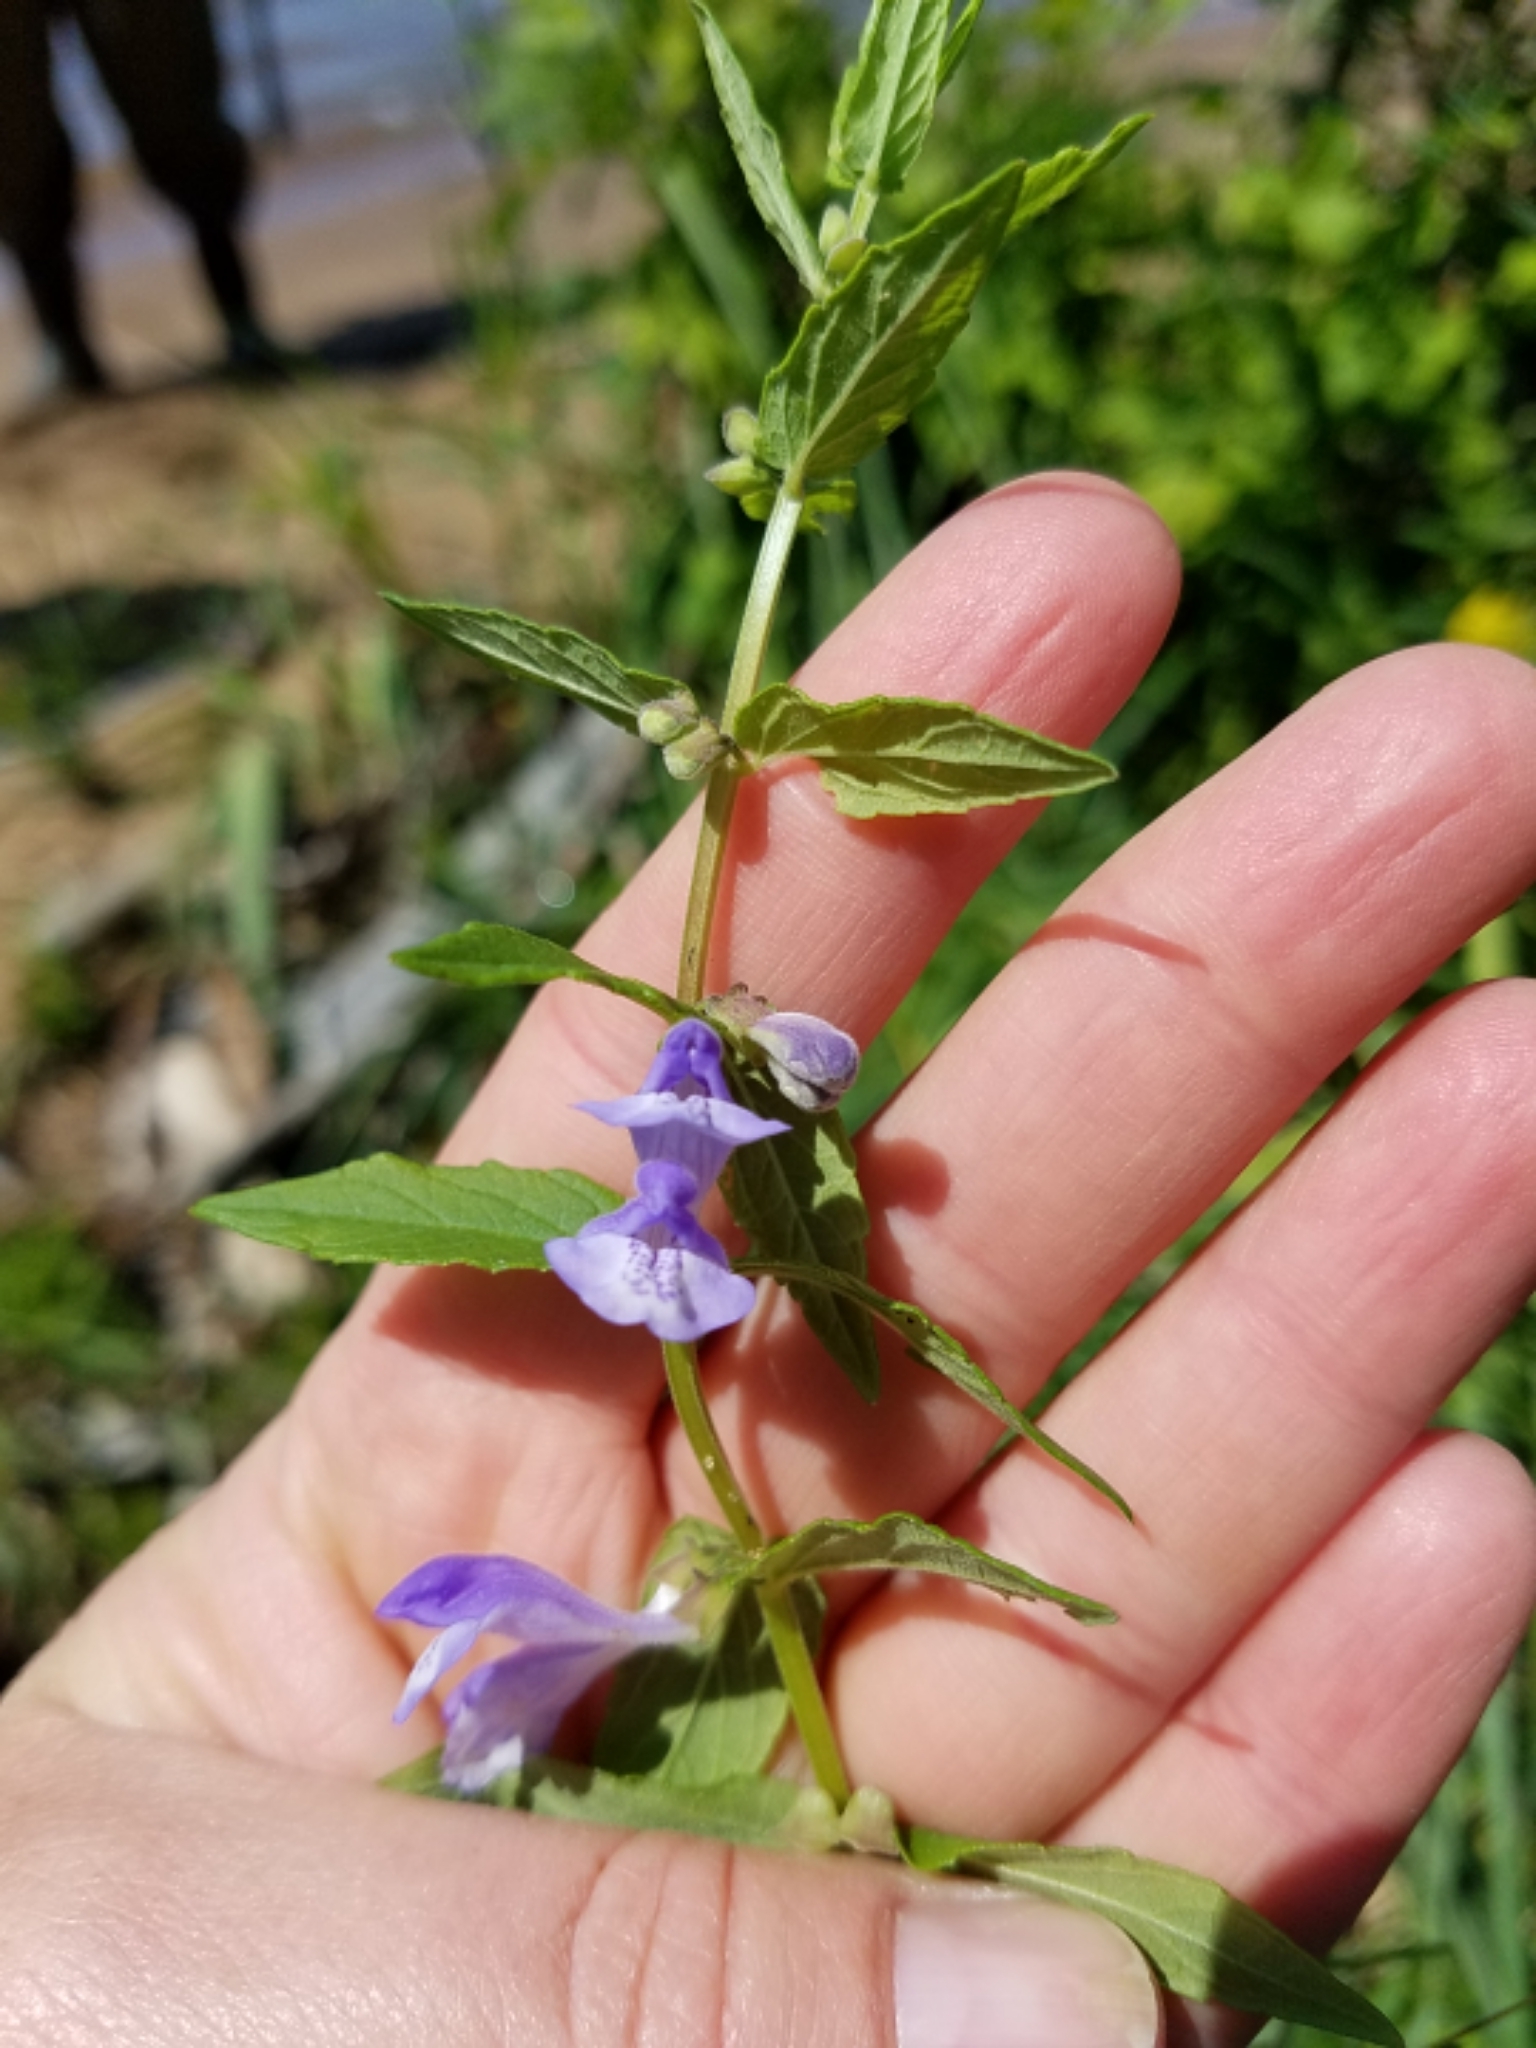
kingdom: Plantae
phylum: Tracheophyta
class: Magnoliopsida
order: Lamiales
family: Lamiaceae
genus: Scutellaria
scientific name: Scutellaria galericulata
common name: Skullcap
